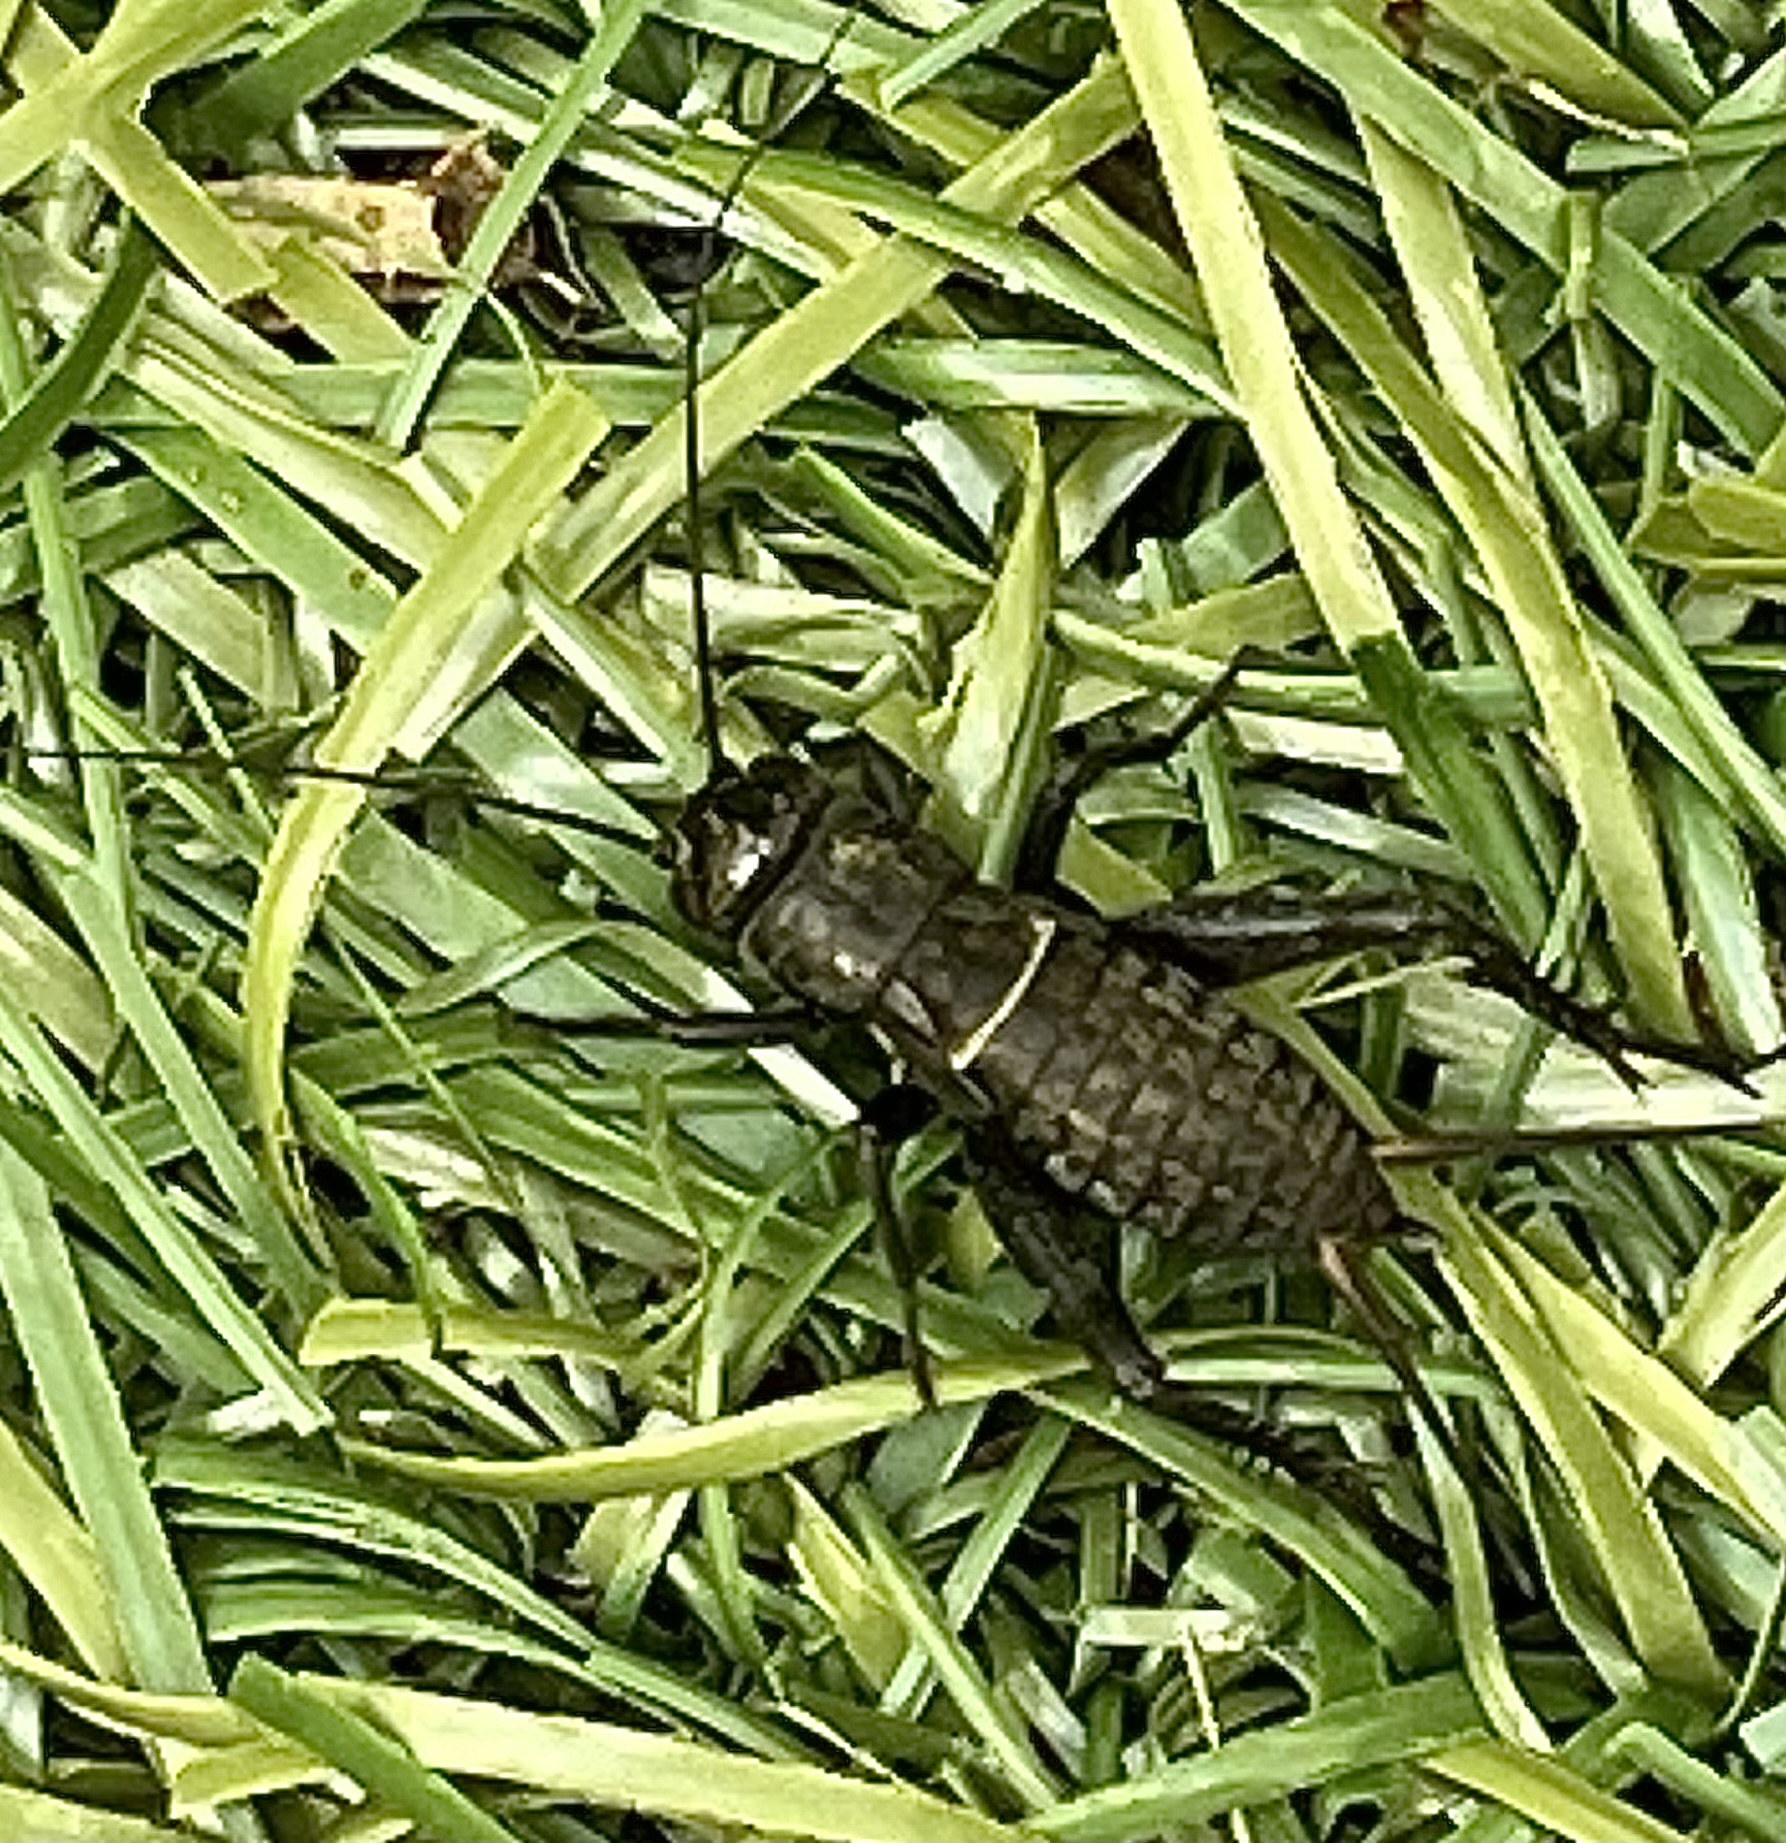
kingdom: Animalia
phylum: Arthropoda
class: Insecta
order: Orthoptera
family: Gryllidae
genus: Teleogryllus
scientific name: Teleogryllus commodus
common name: Black field cricket
